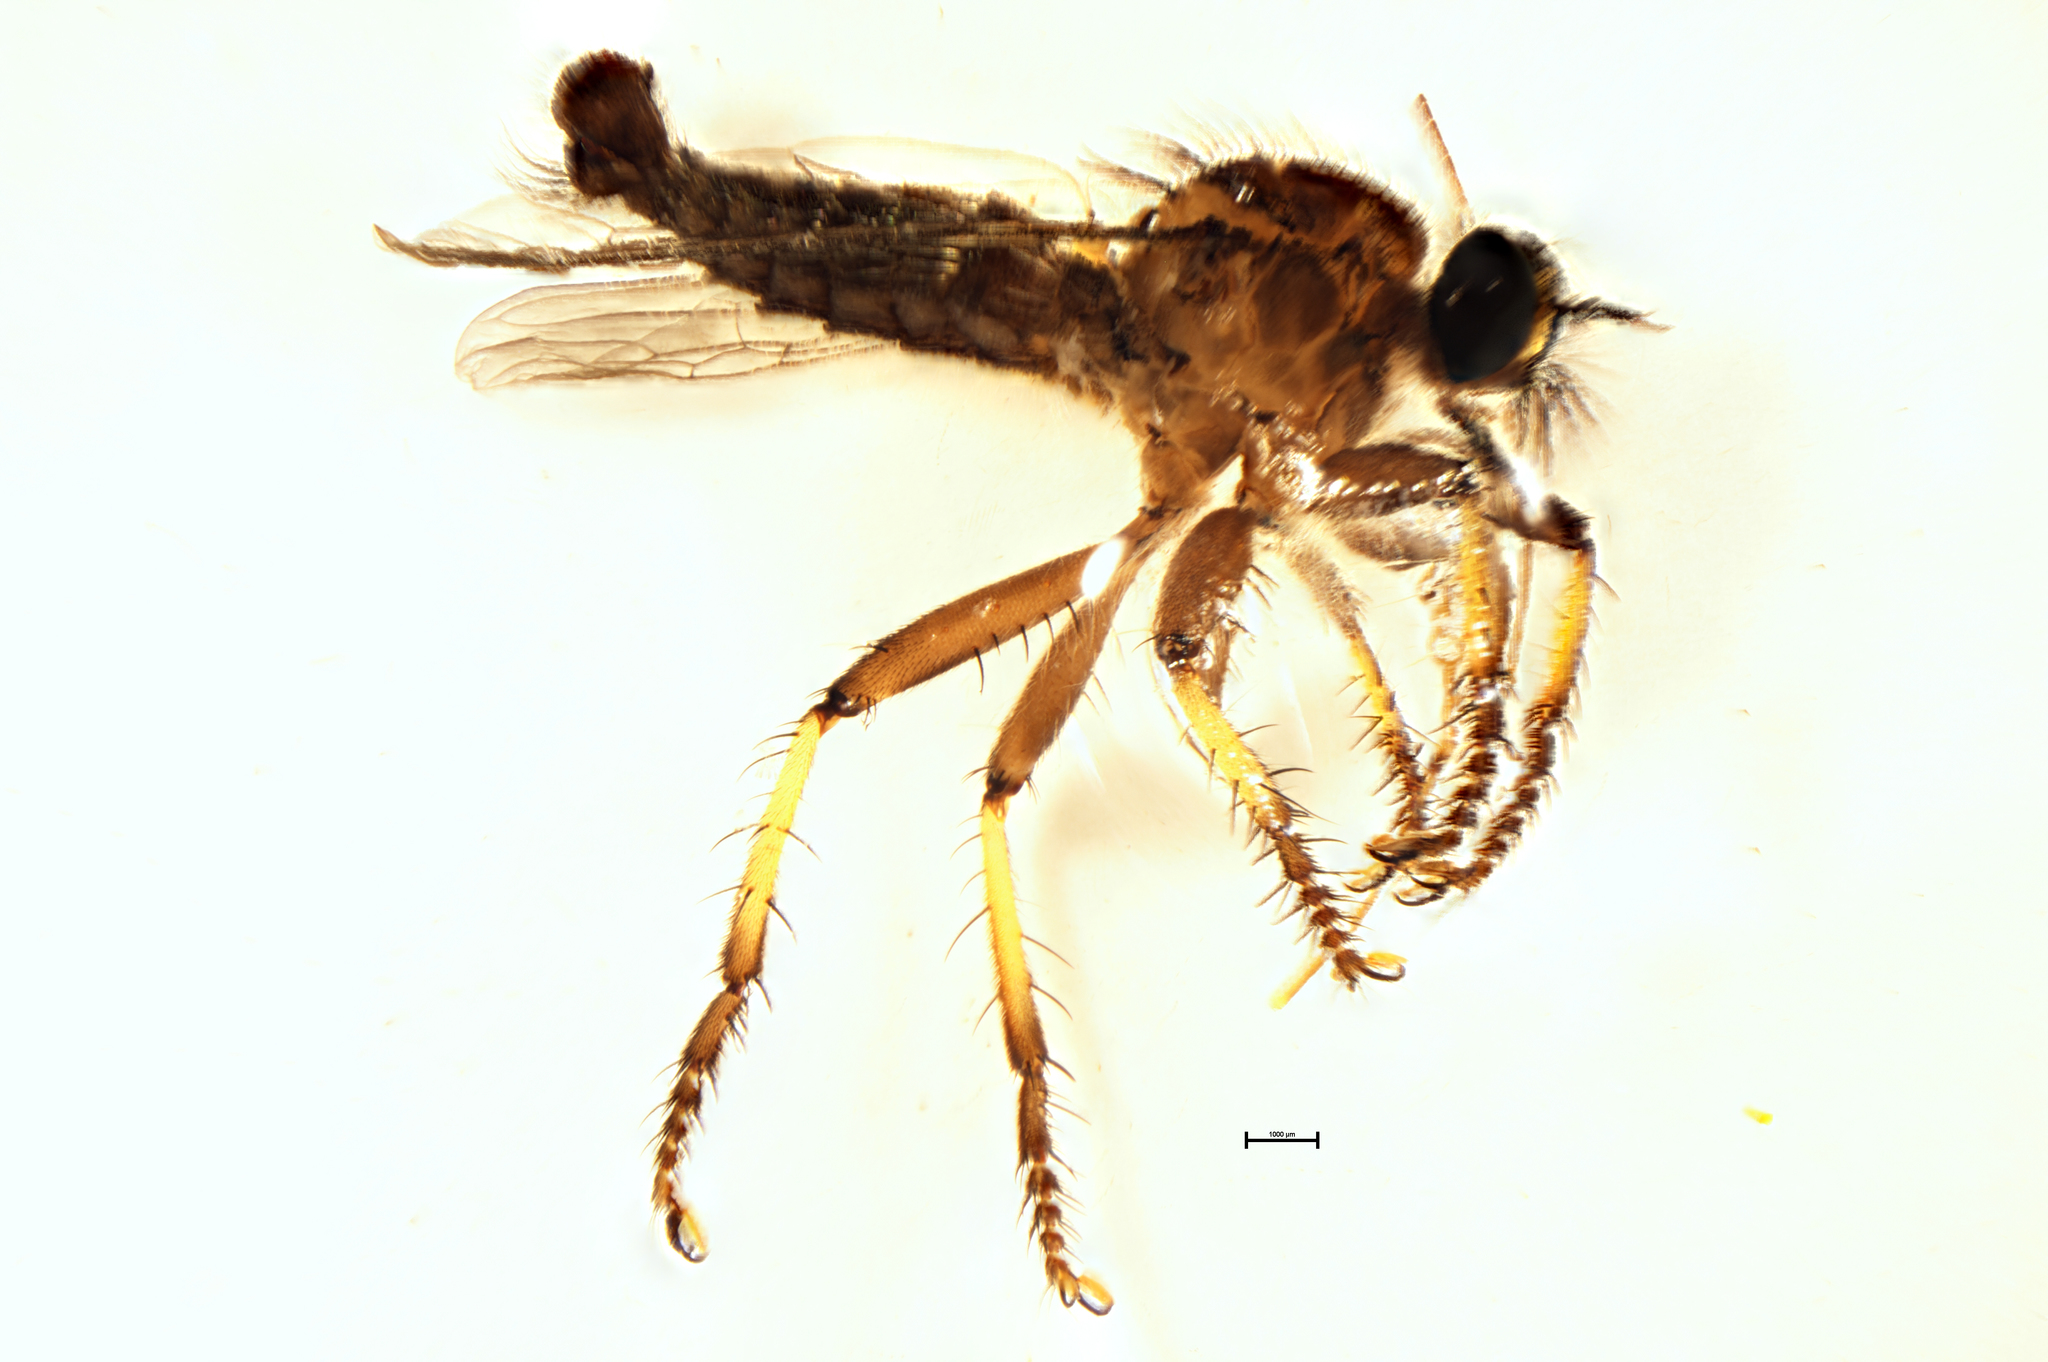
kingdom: Animalia
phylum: Arthropoda
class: Insecta
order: Diptera
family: Asilidae
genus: Neoitamus
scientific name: Neoitamus
